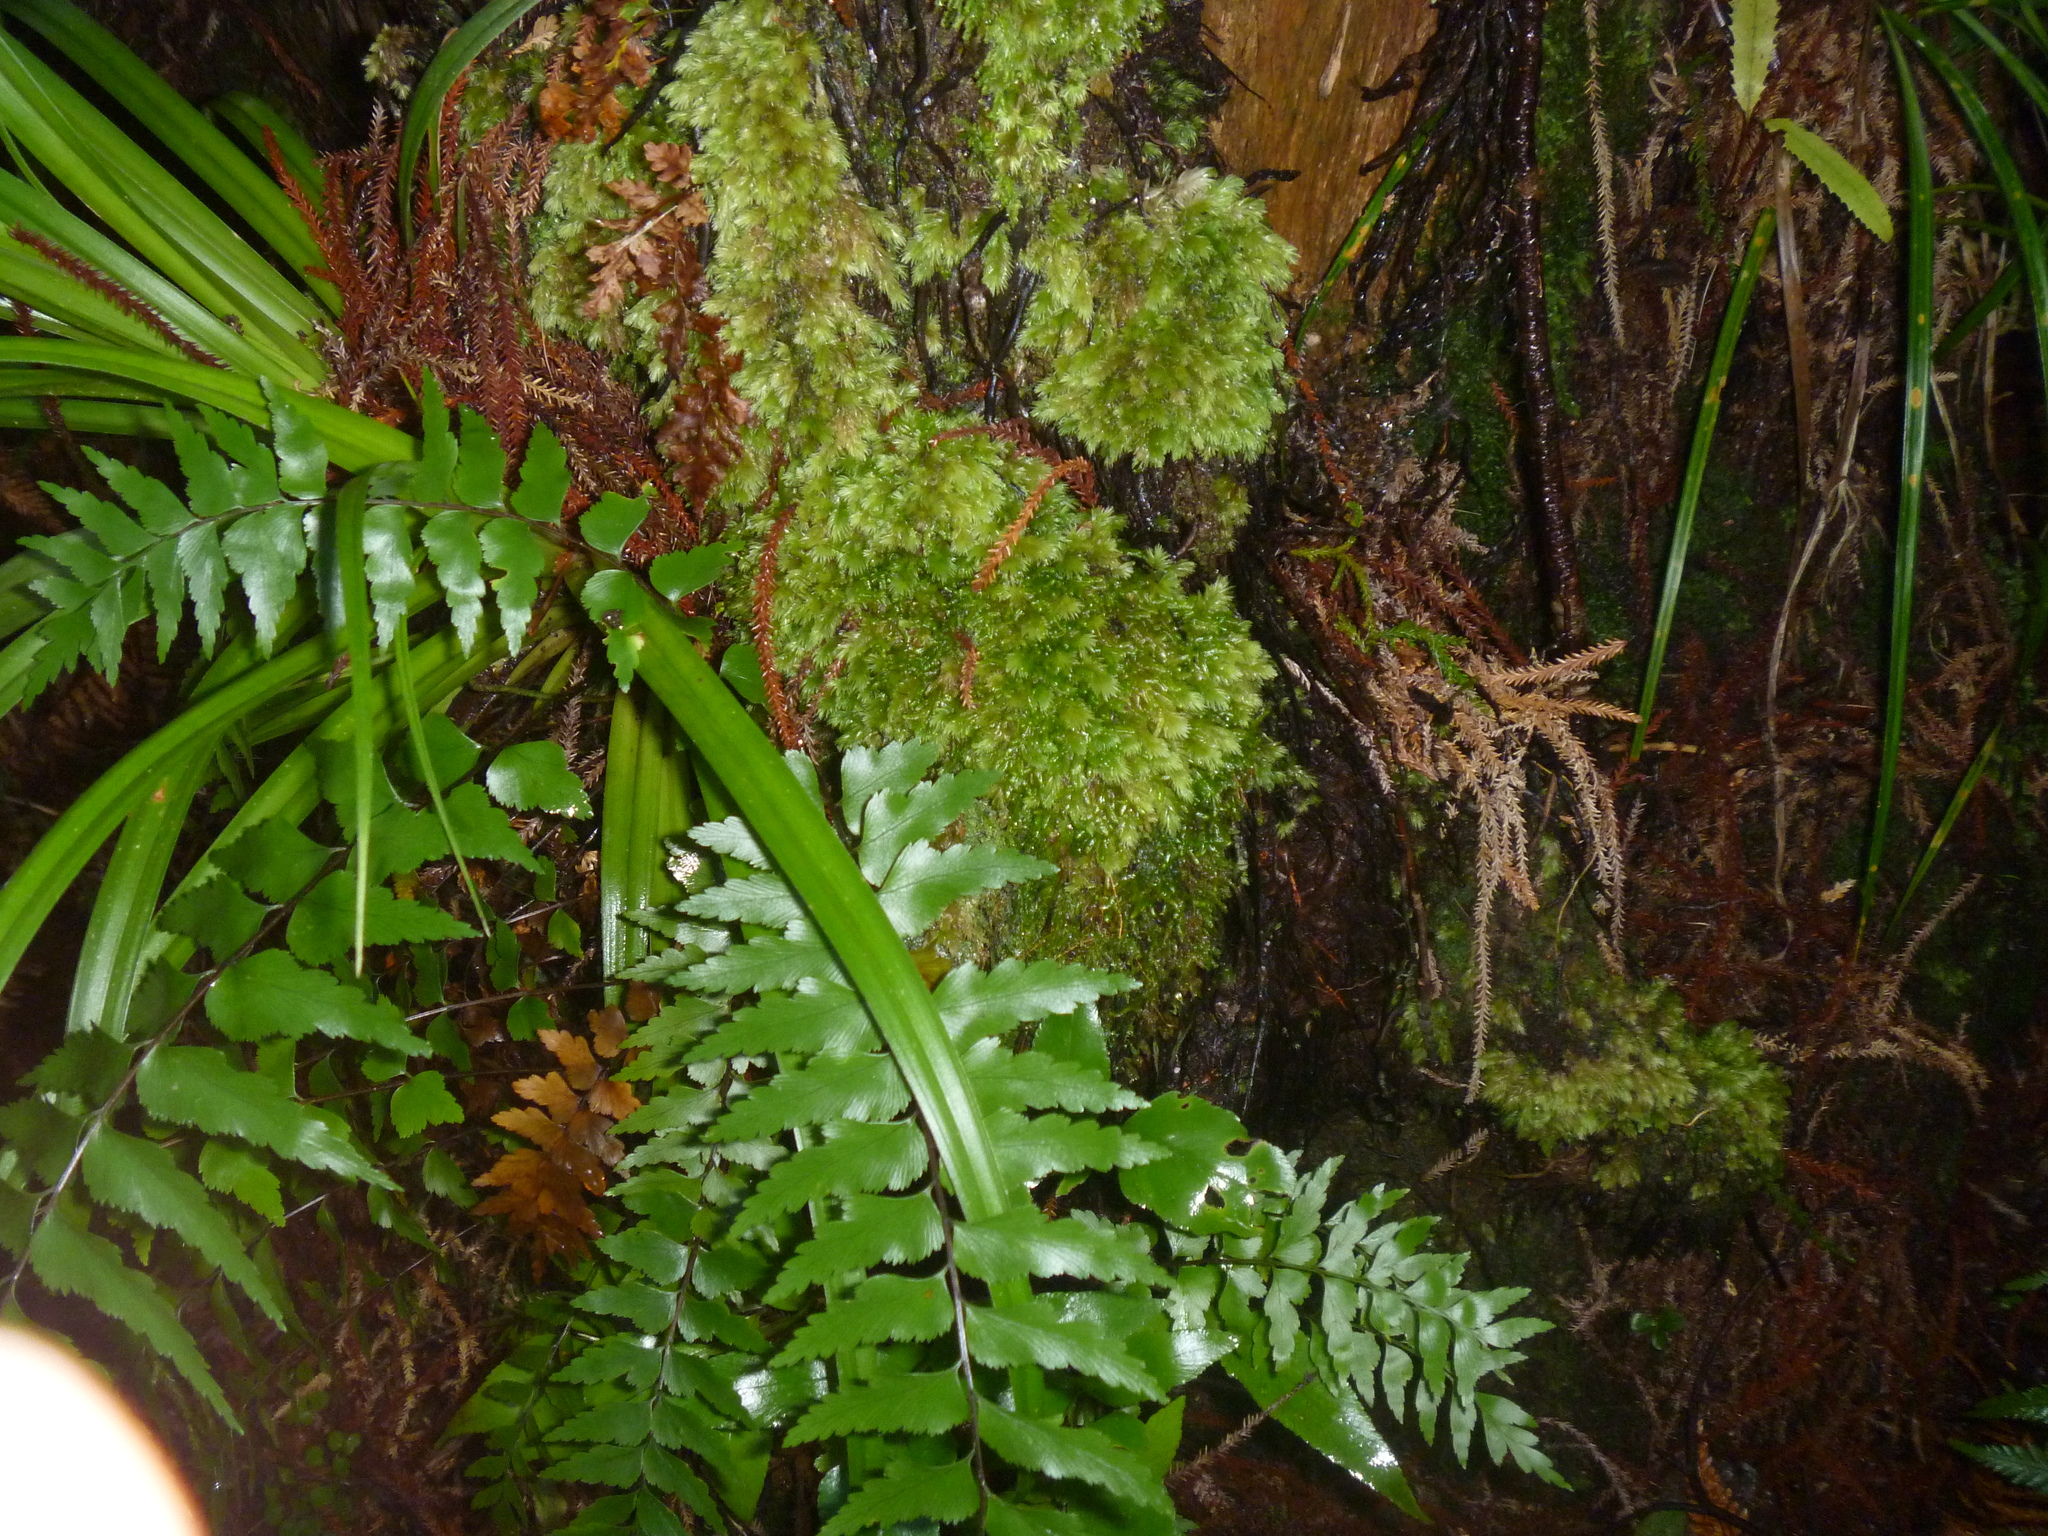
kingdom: Plantae
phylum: Bryophyta
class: Bryopsida
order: Dicranales
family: Leucobryaceae
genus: Leucobryum
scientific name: Leucobryum javense
